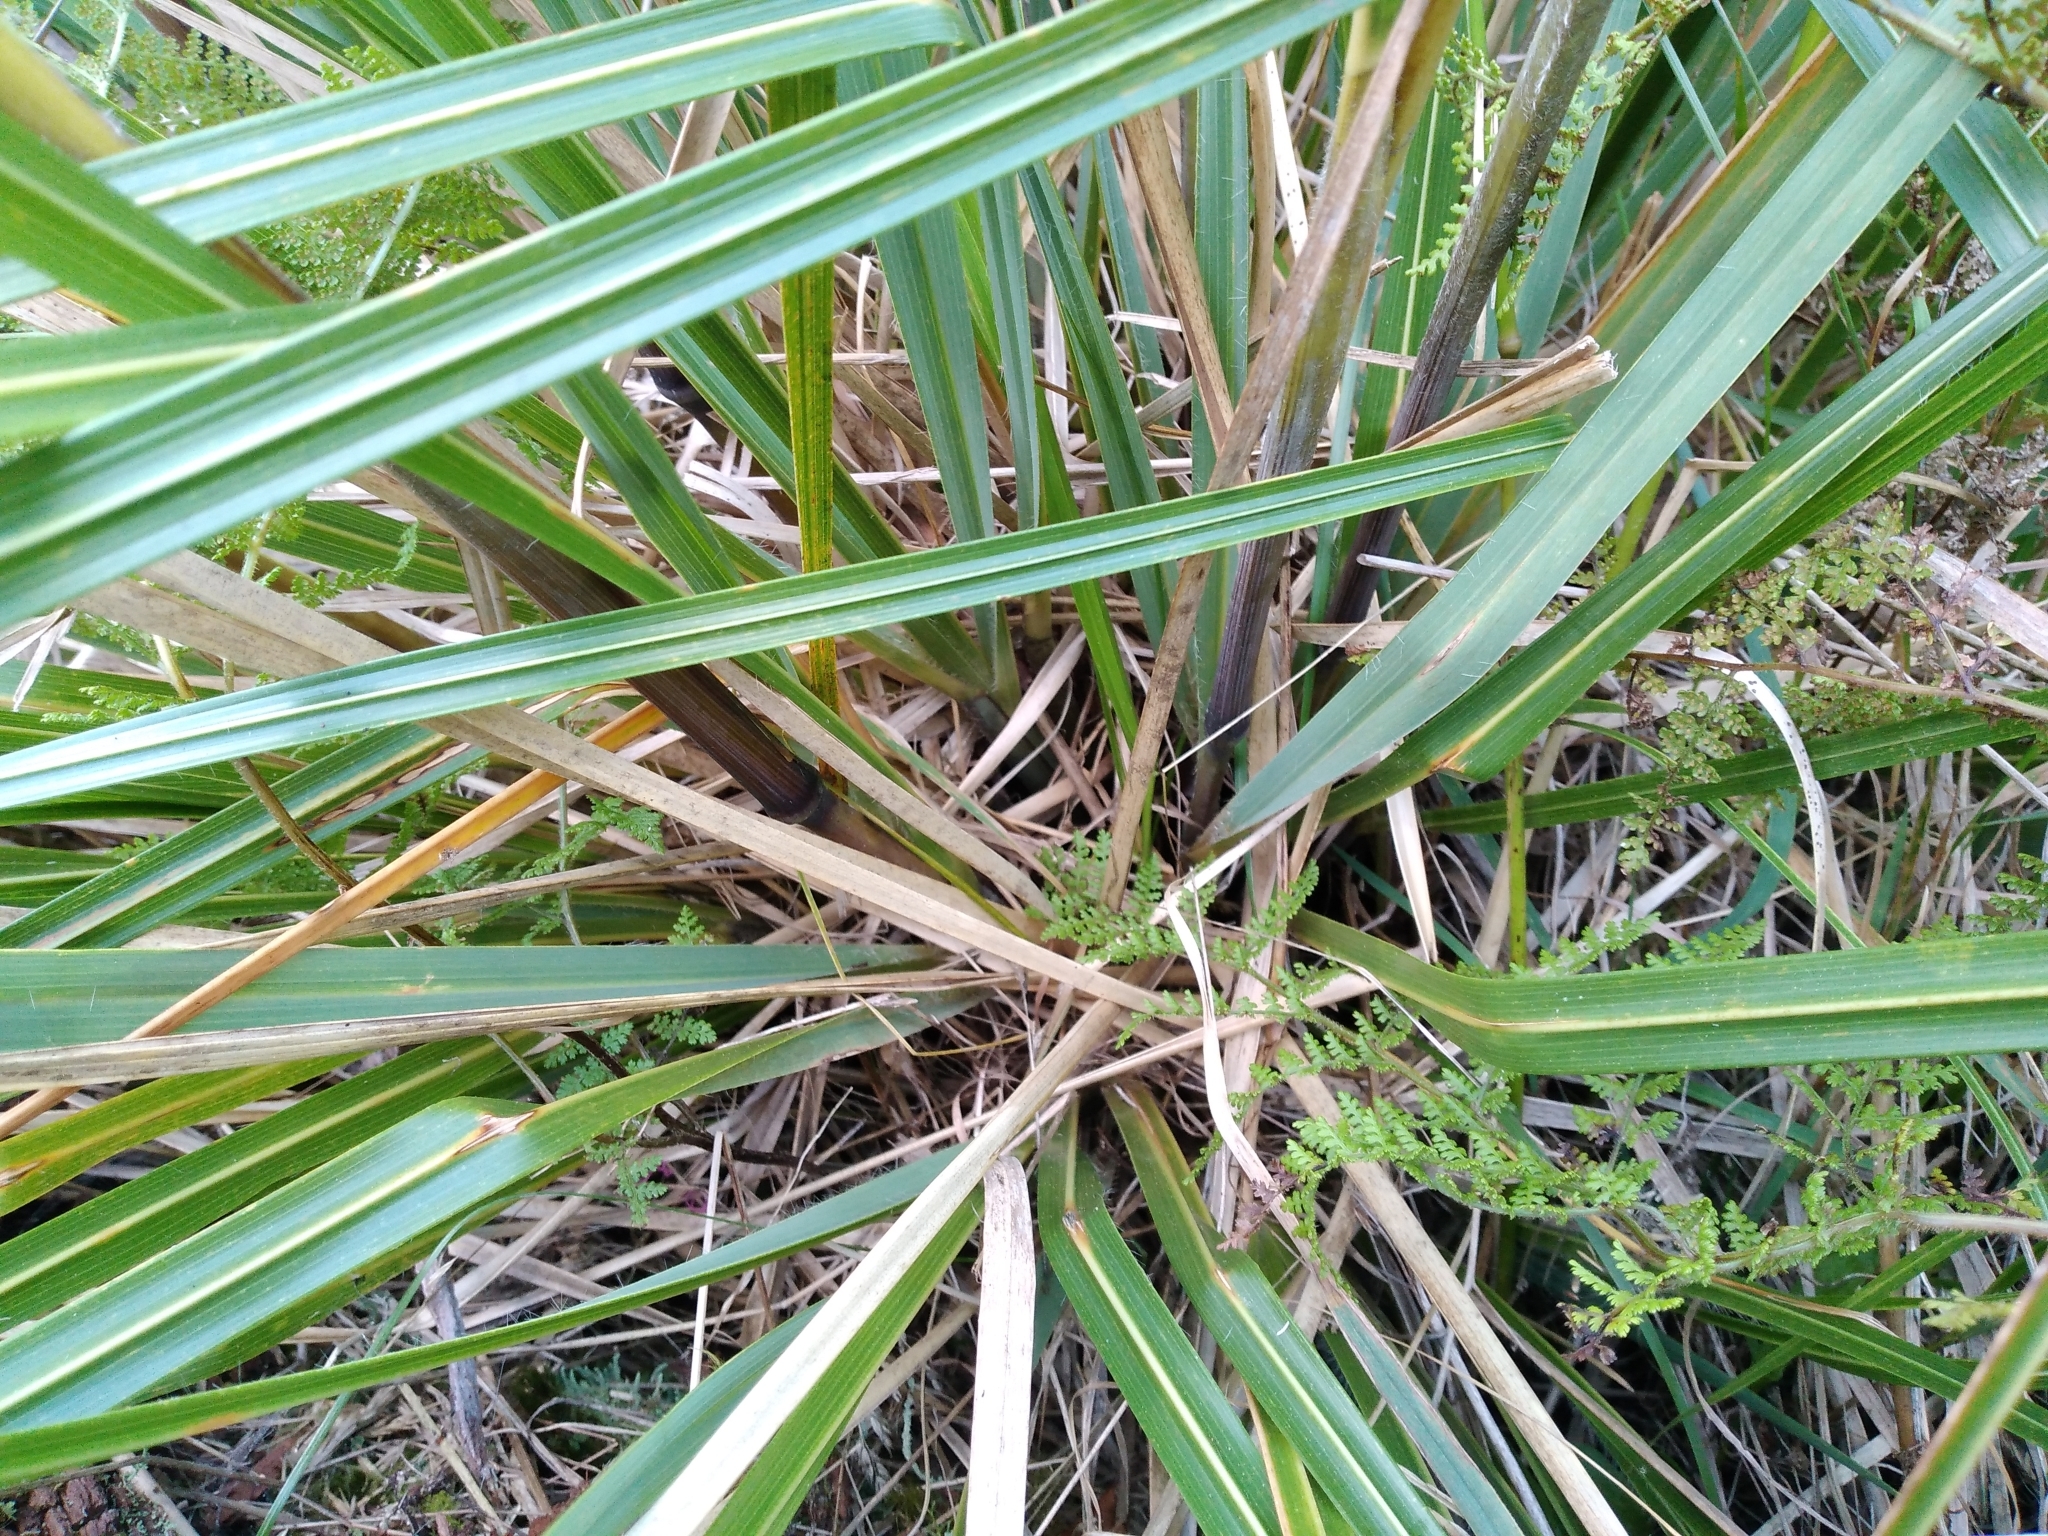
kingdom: Plantae
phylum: Tracheophyta
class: Liliopsida
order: Poales
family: Poaceae
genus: Chionochloa
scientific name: Chionochloa conspicua
